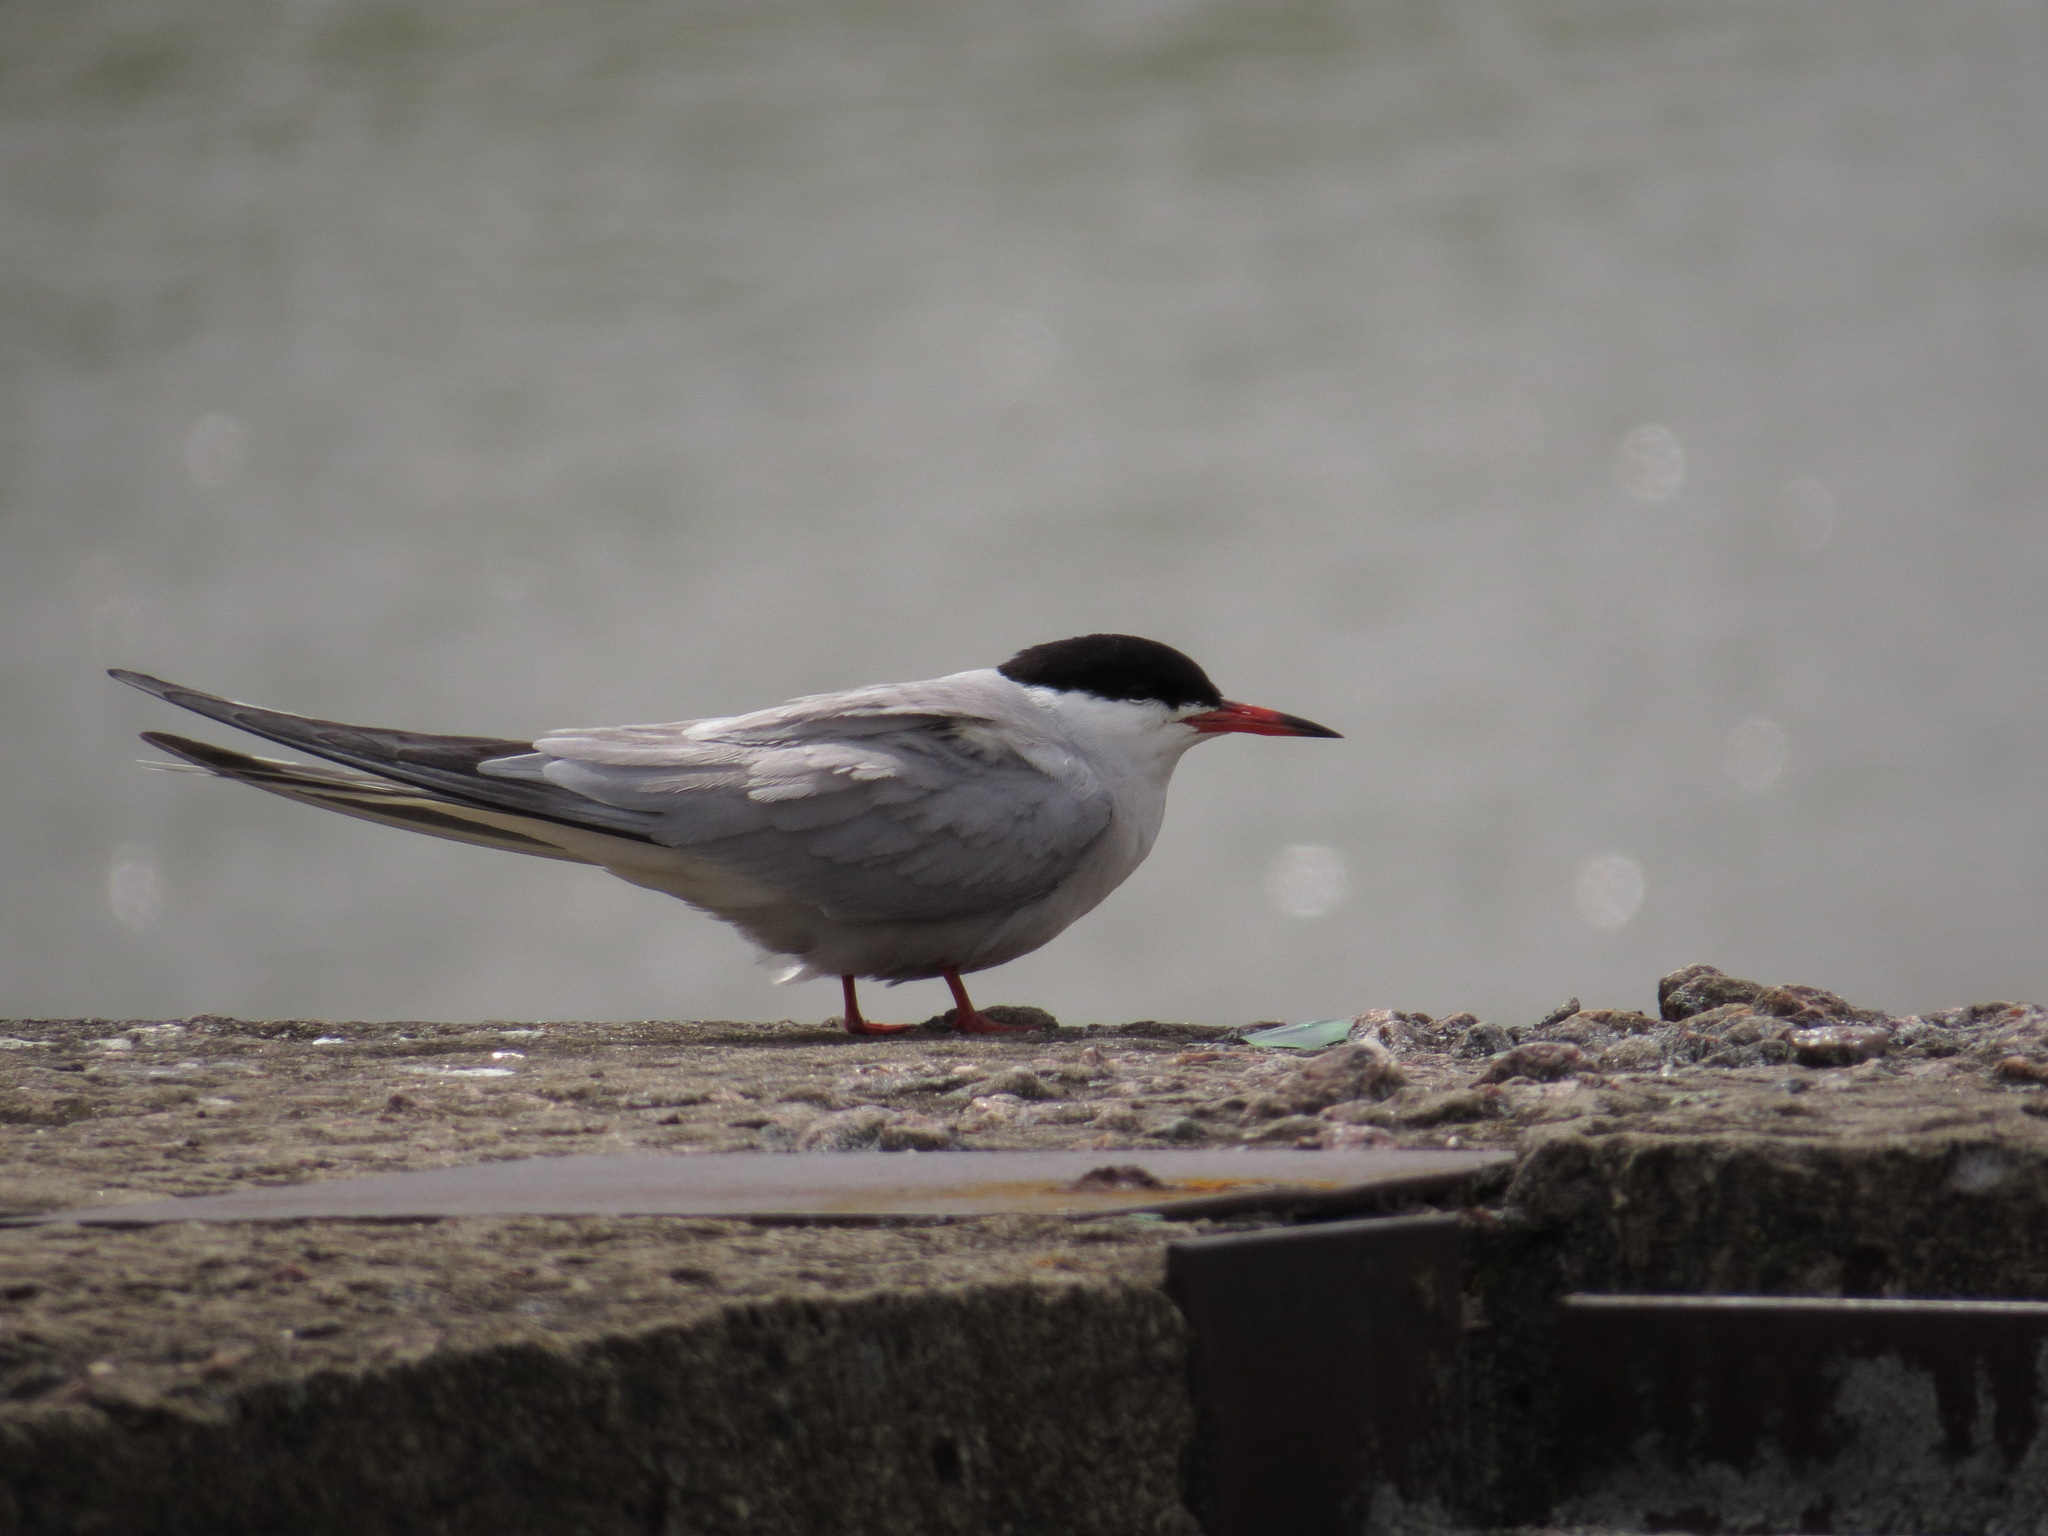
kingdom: Animalia
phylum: Chordata
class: Aves
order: Charadriiformes
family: Laridae
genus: Sterna
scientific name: Sterna hirundo
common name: Common tern
